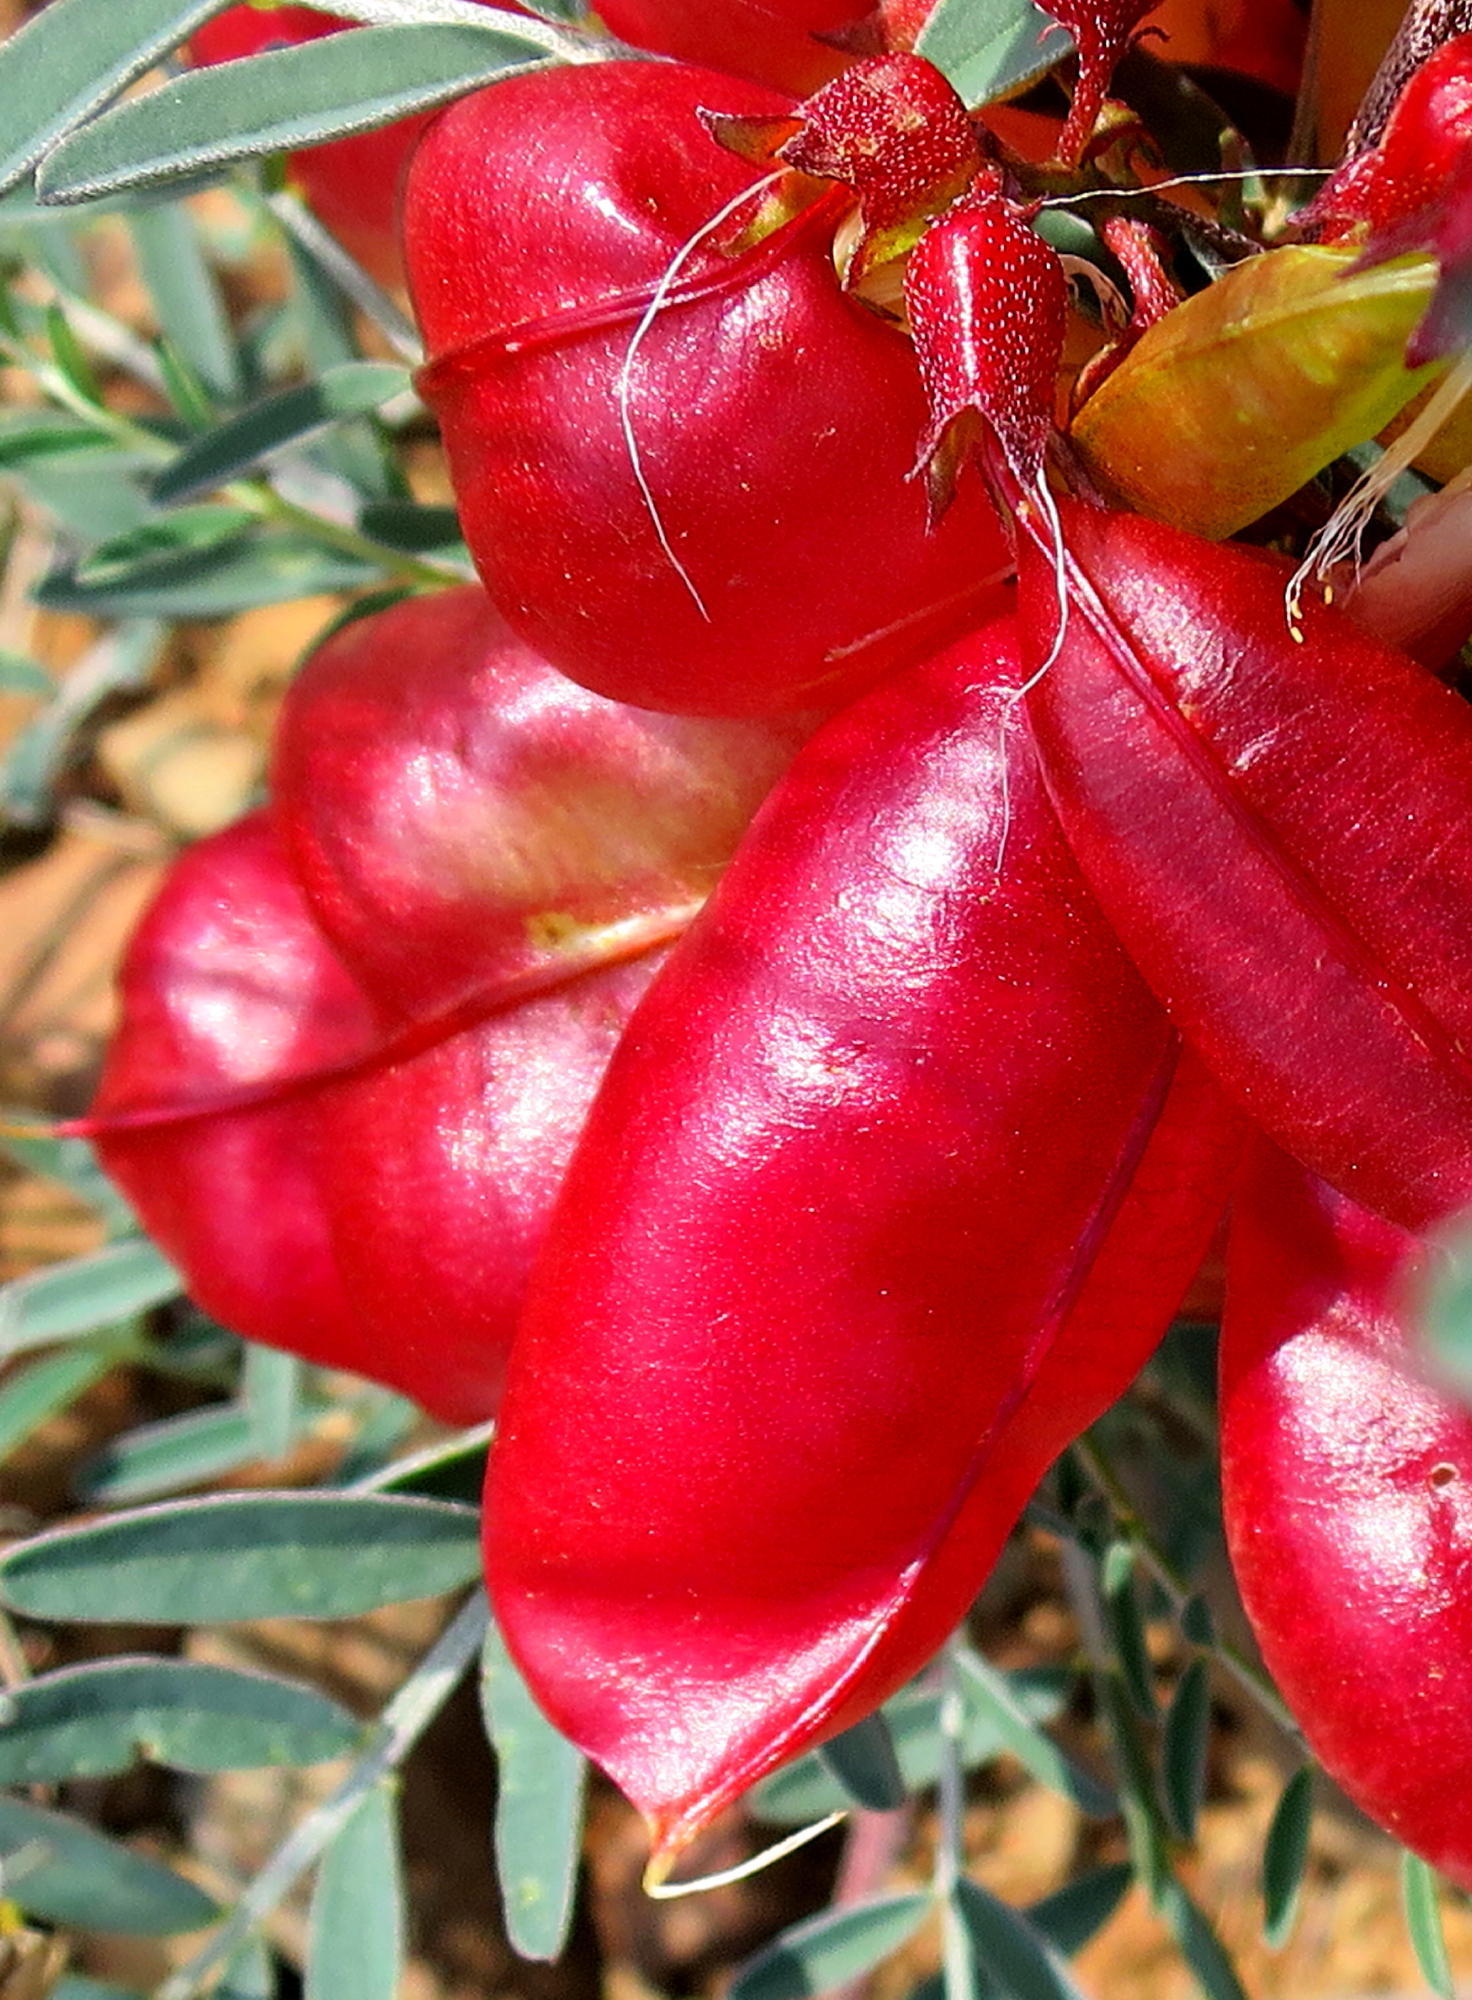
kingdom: Plantae
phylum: Tracheophyta
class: Magnoliopsida
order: Fabales
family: Fabaceae
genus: Lessertia
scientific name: Lessertia frutescens
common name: Balloon-pea
